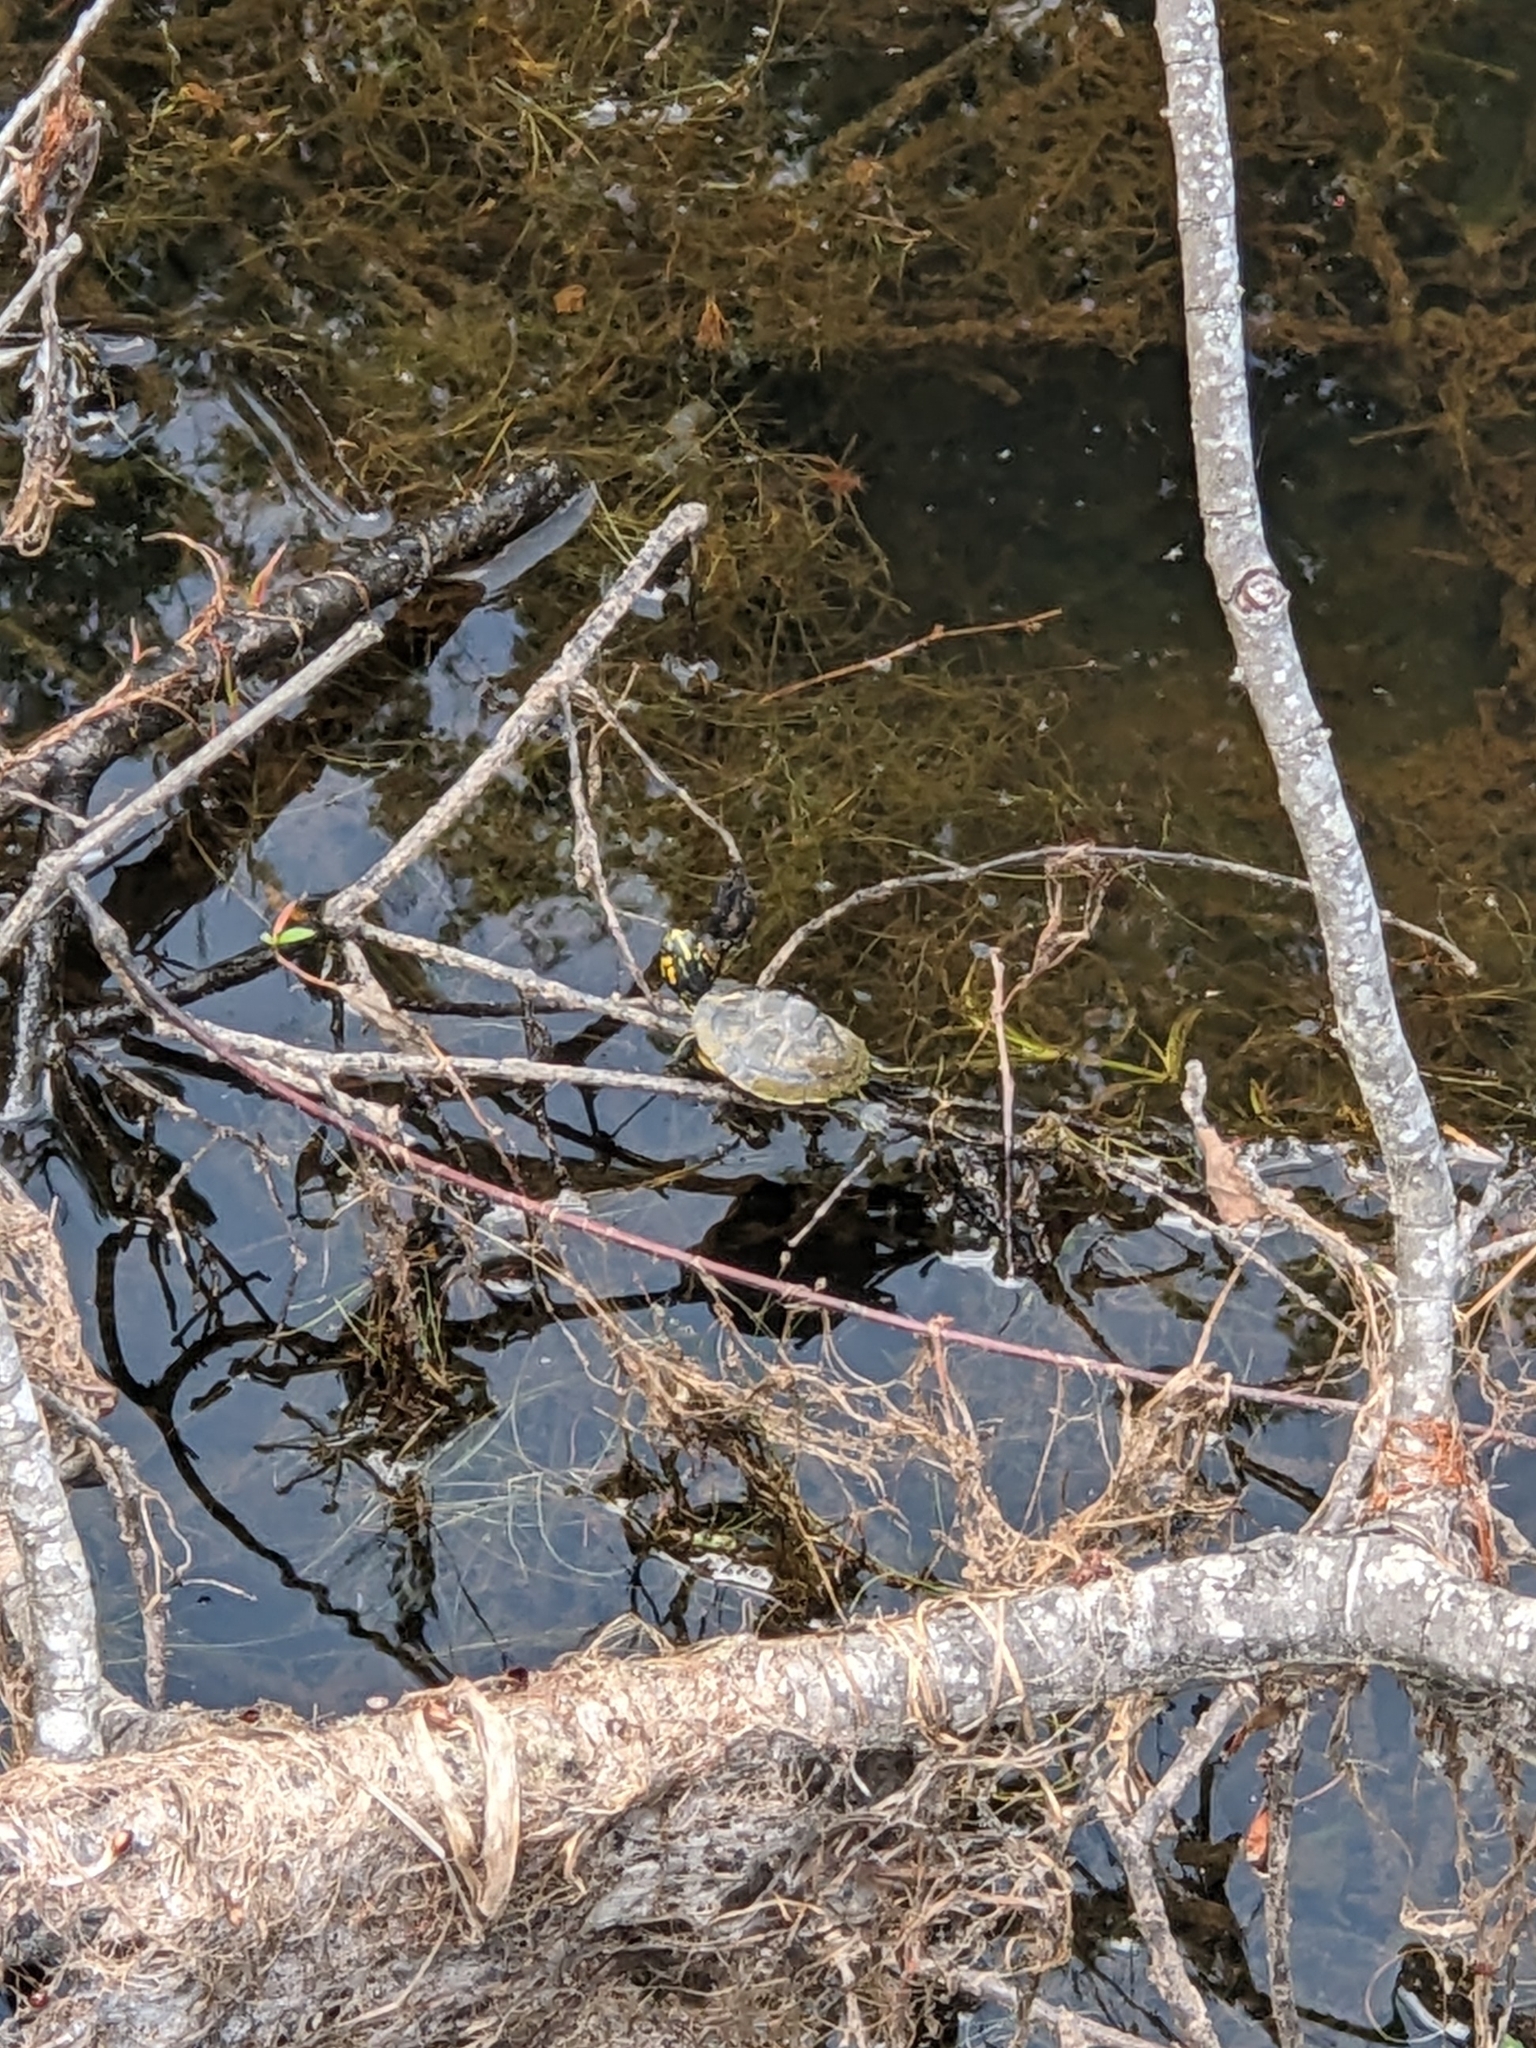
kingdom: Animalia
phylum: Chordata
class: Testudines
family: Emydidae
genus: Trachemys
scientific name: Trachemys scripta
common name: Slider
